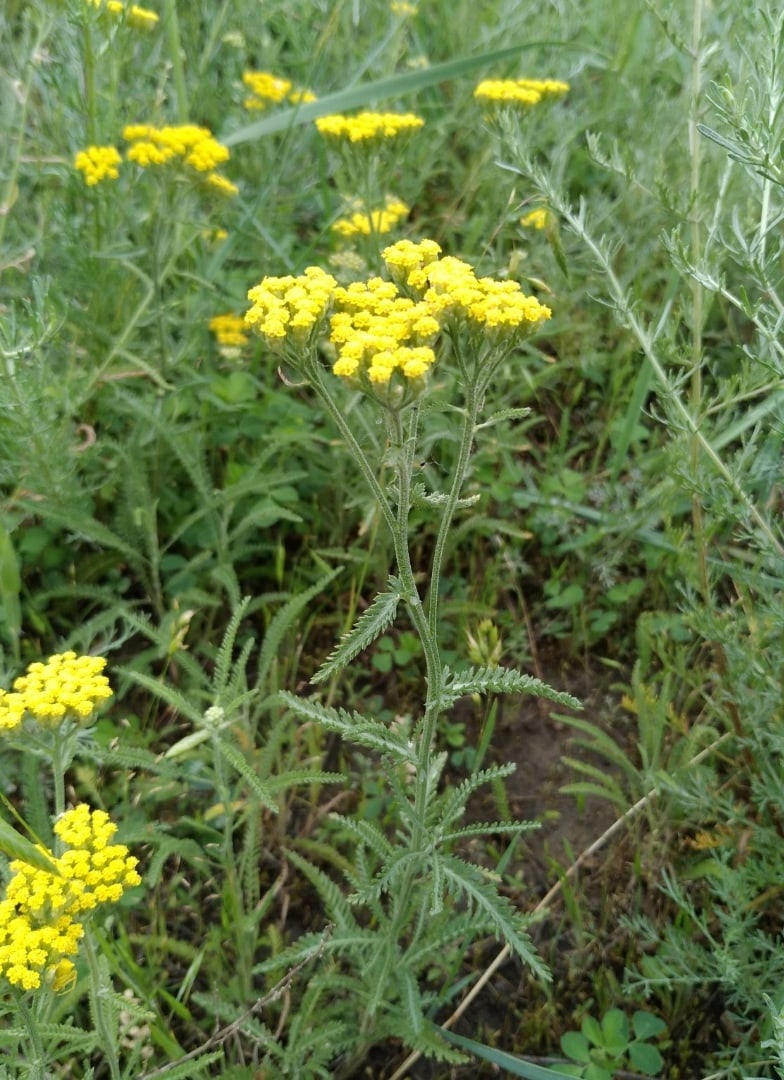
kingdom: Plantae
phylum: Tracheophyta
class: Magnoliopsida
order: Asterales
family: Asteraceae
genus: Achillea
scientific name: Achillea micrantha
